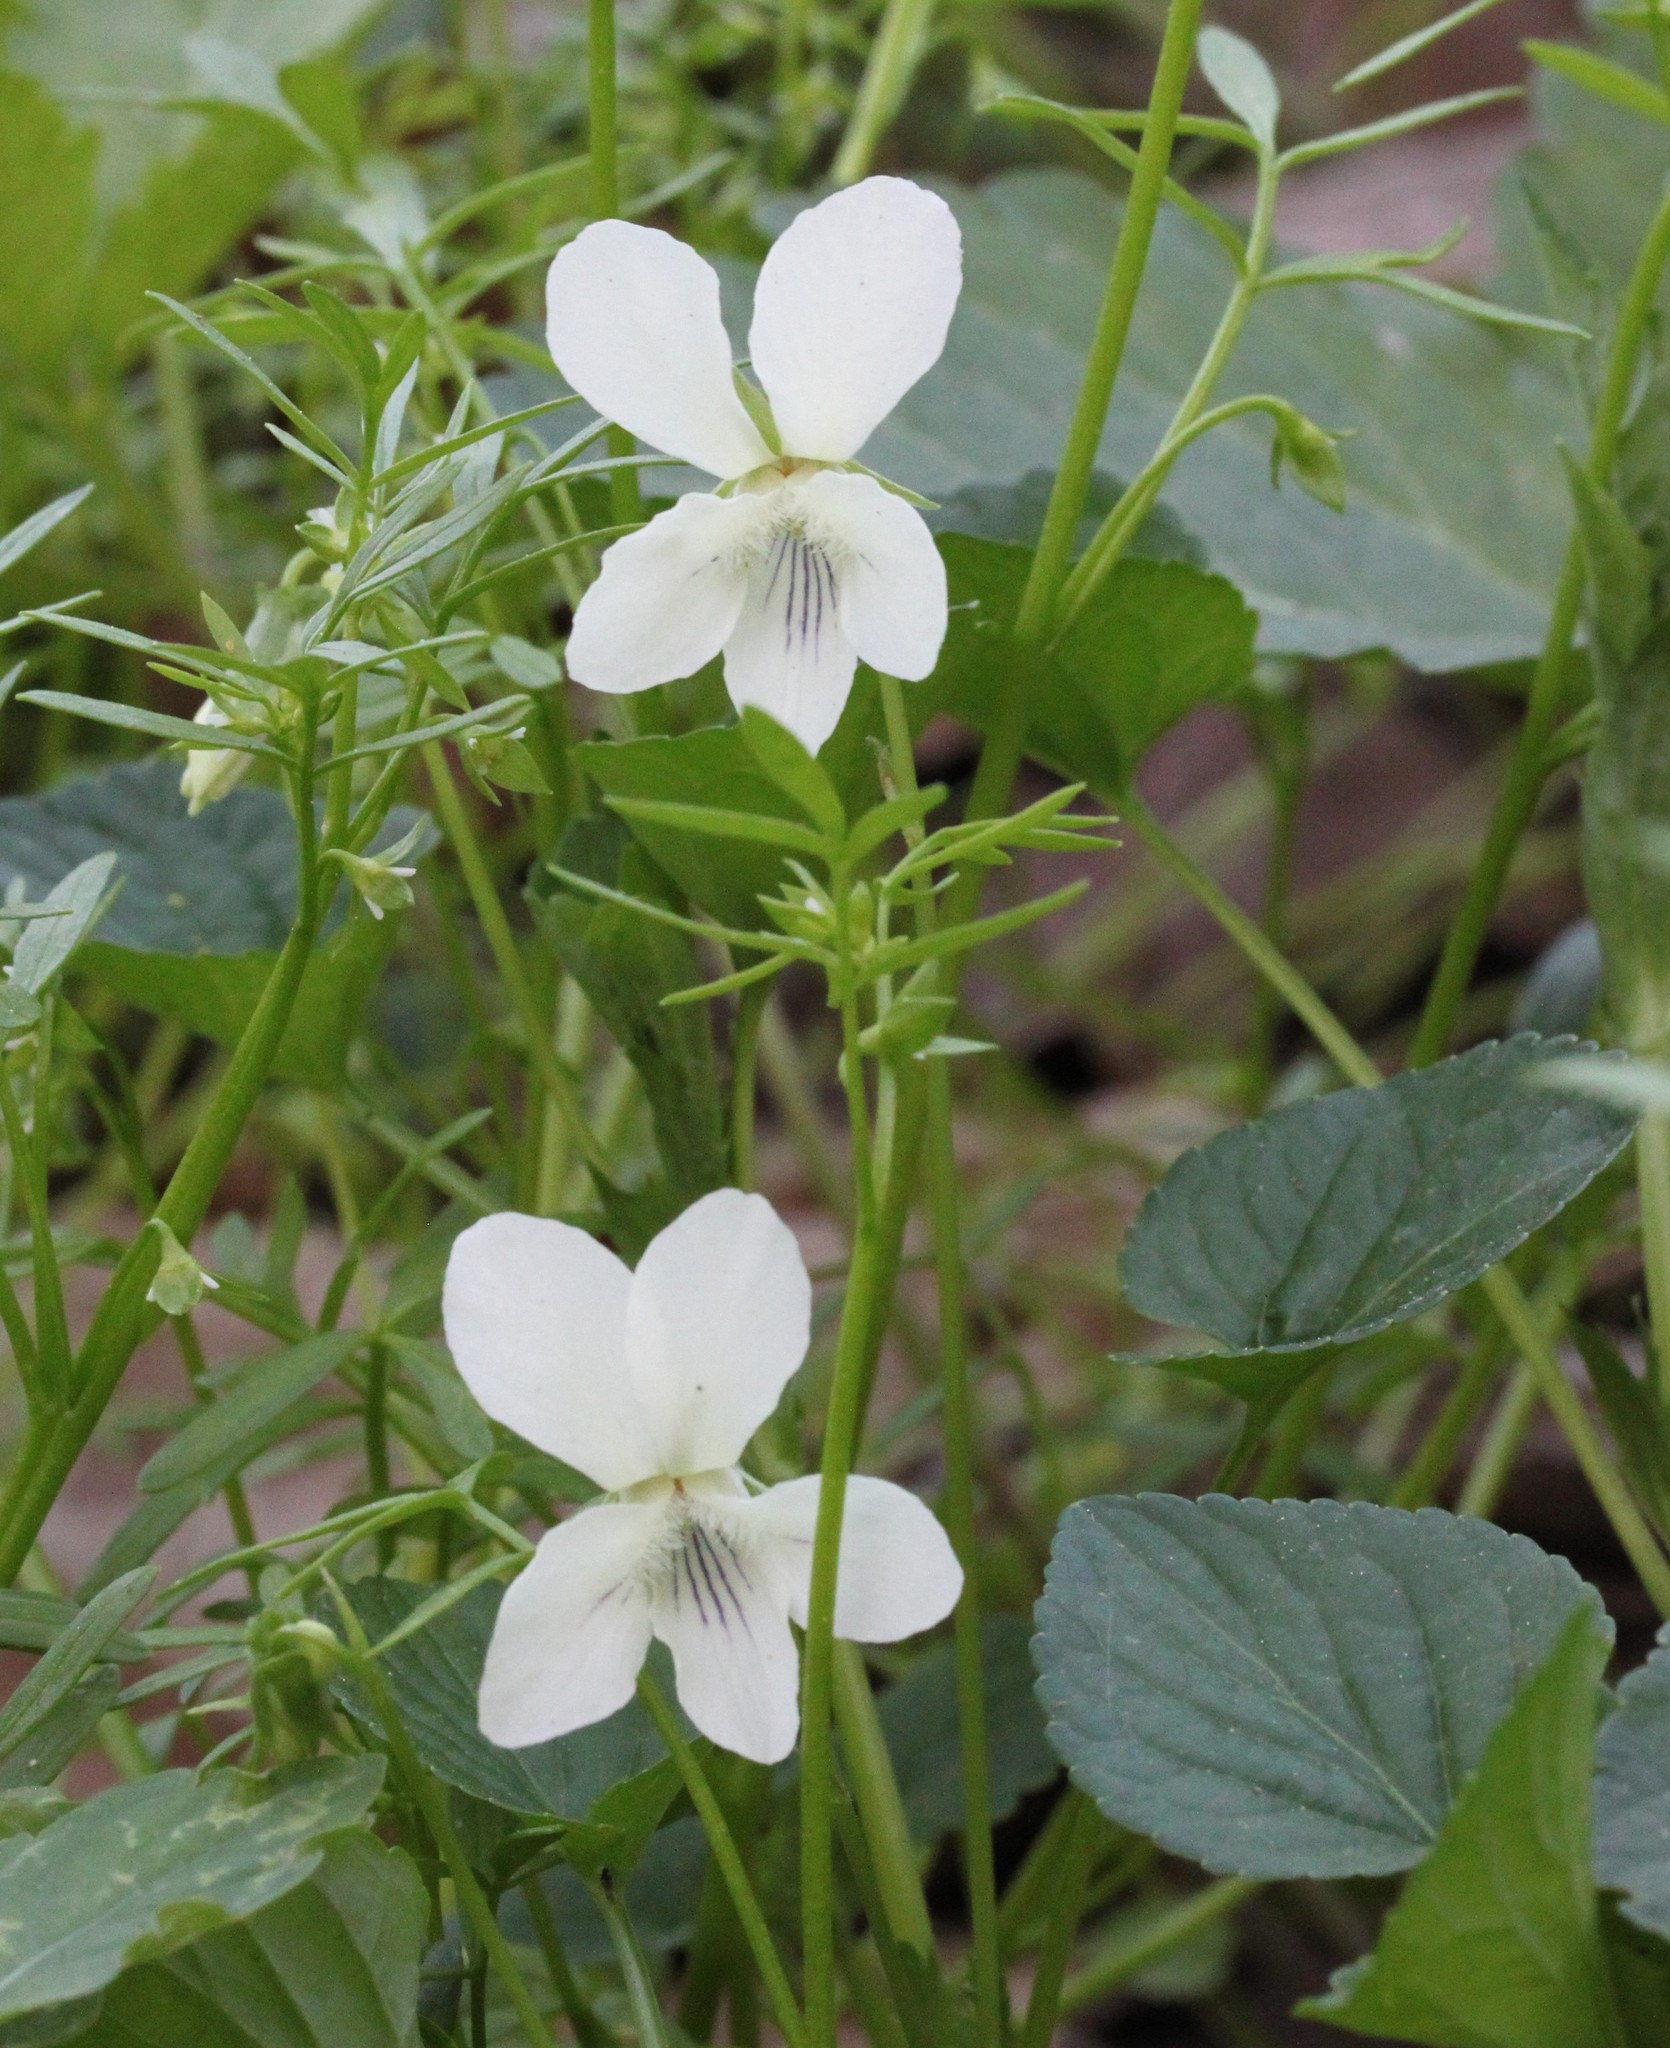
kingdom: Plantae
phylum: Tracheophyta
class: Magnoliopsida
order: Malpighiales
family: Violaceae
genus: Viola
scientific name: Viola striata
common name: Cream violet
